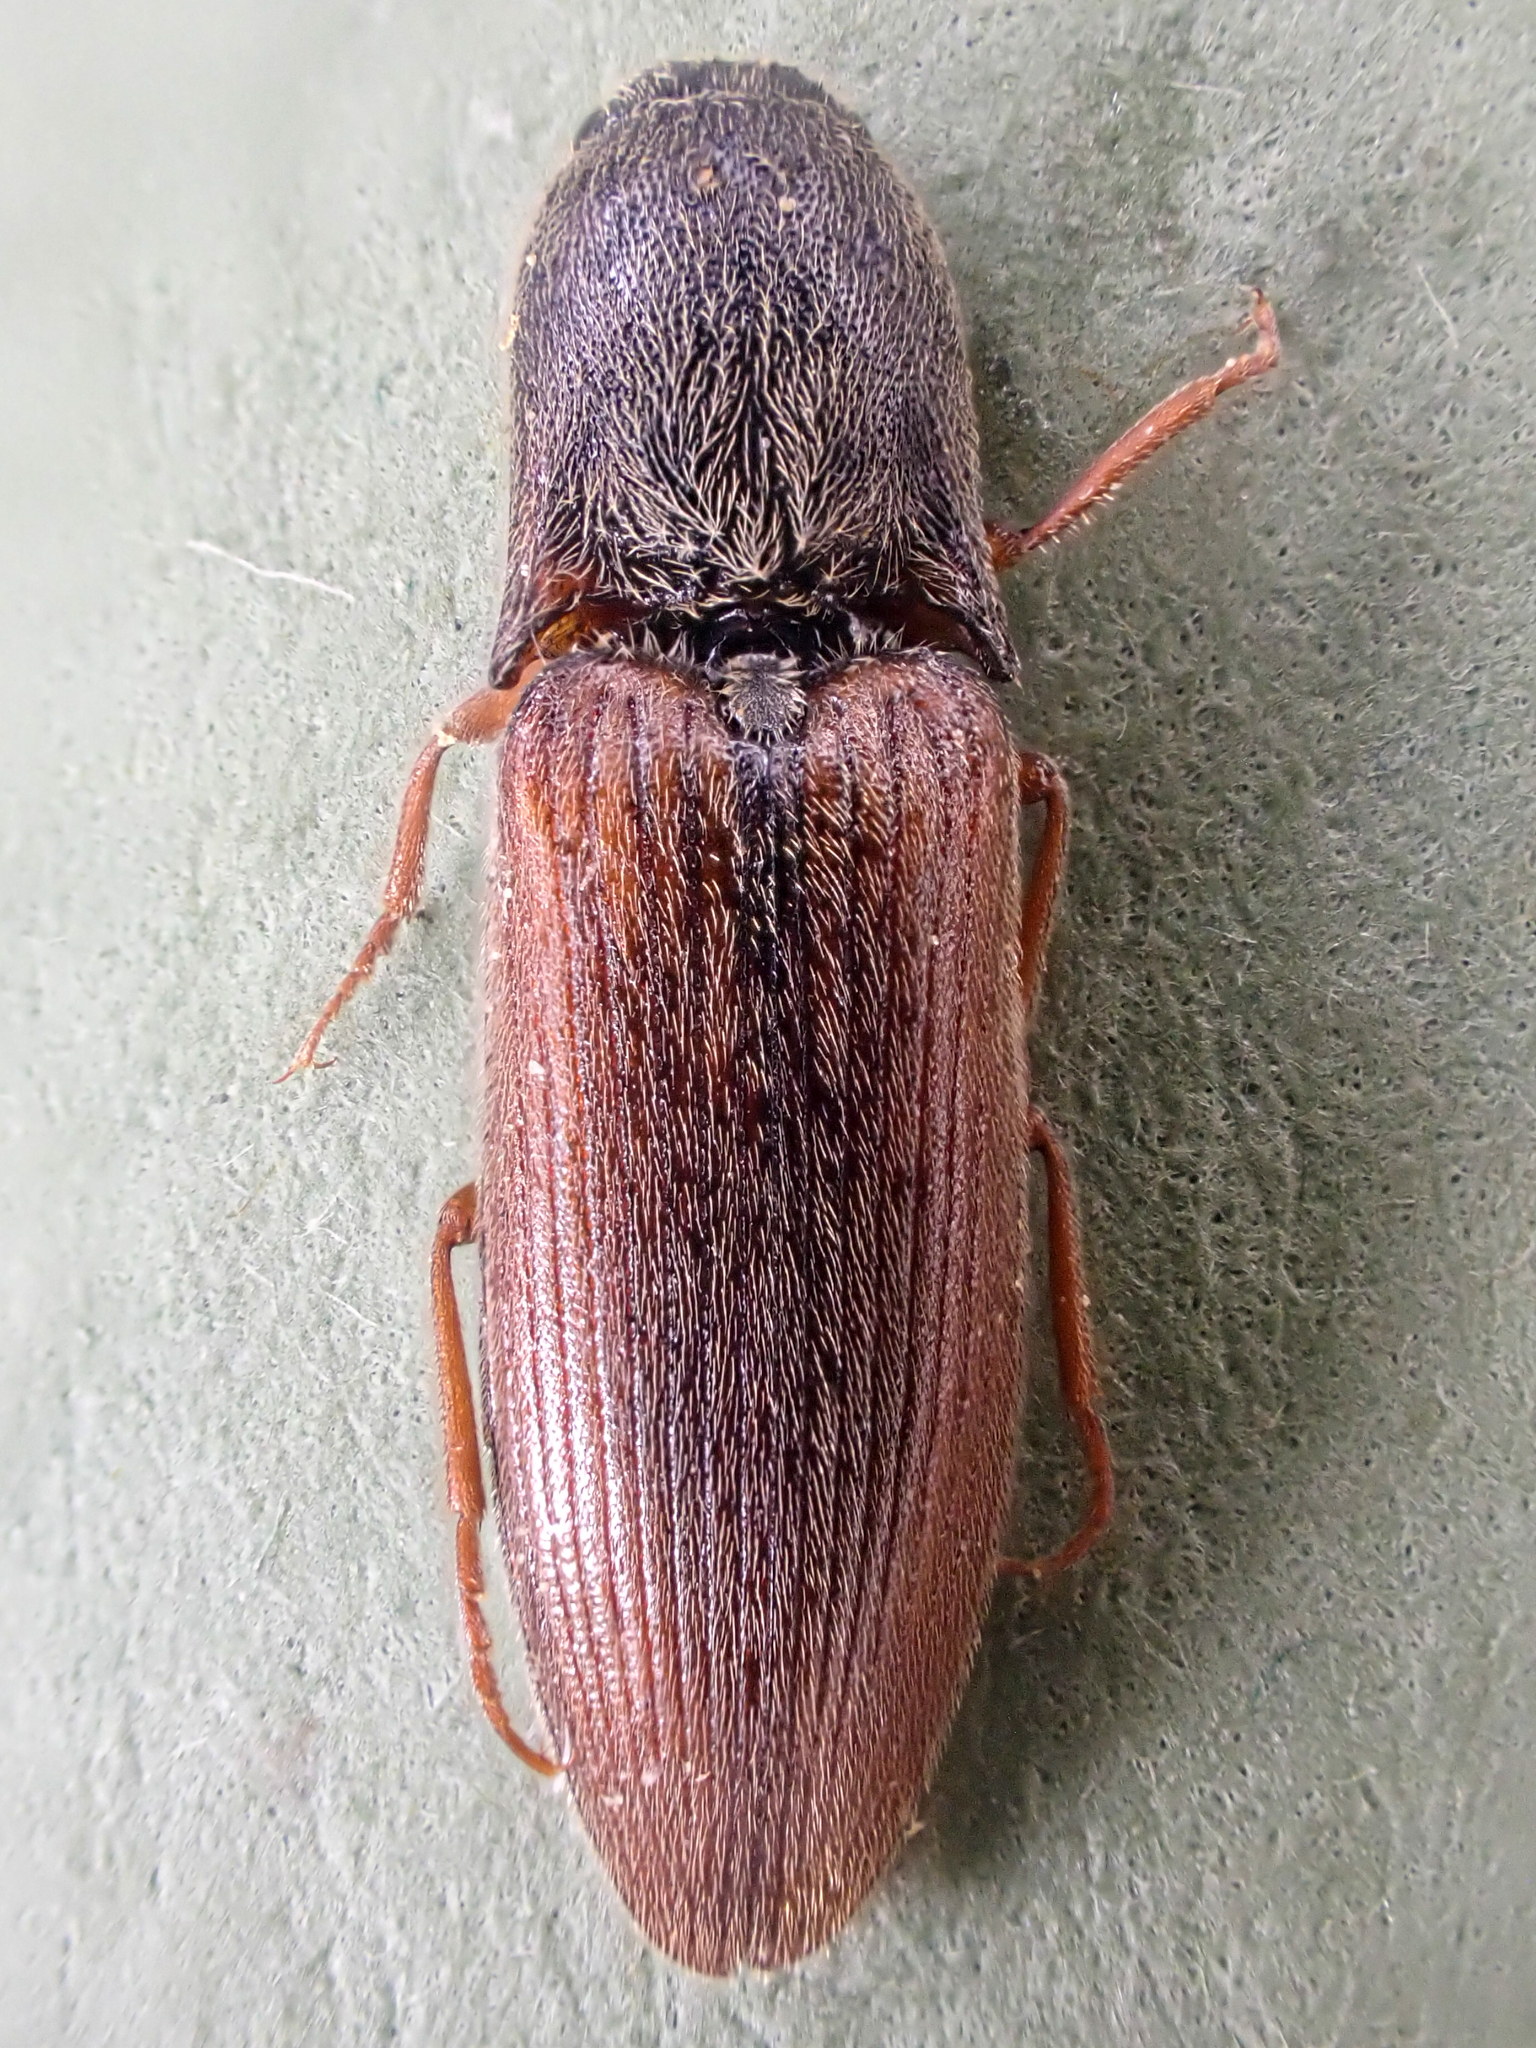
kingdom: Animalia
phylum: Arthropoda
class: Insecta
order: Coleoptera
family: Elateridae
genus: Agriotes
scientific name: Agriotes ferrugineipennis
